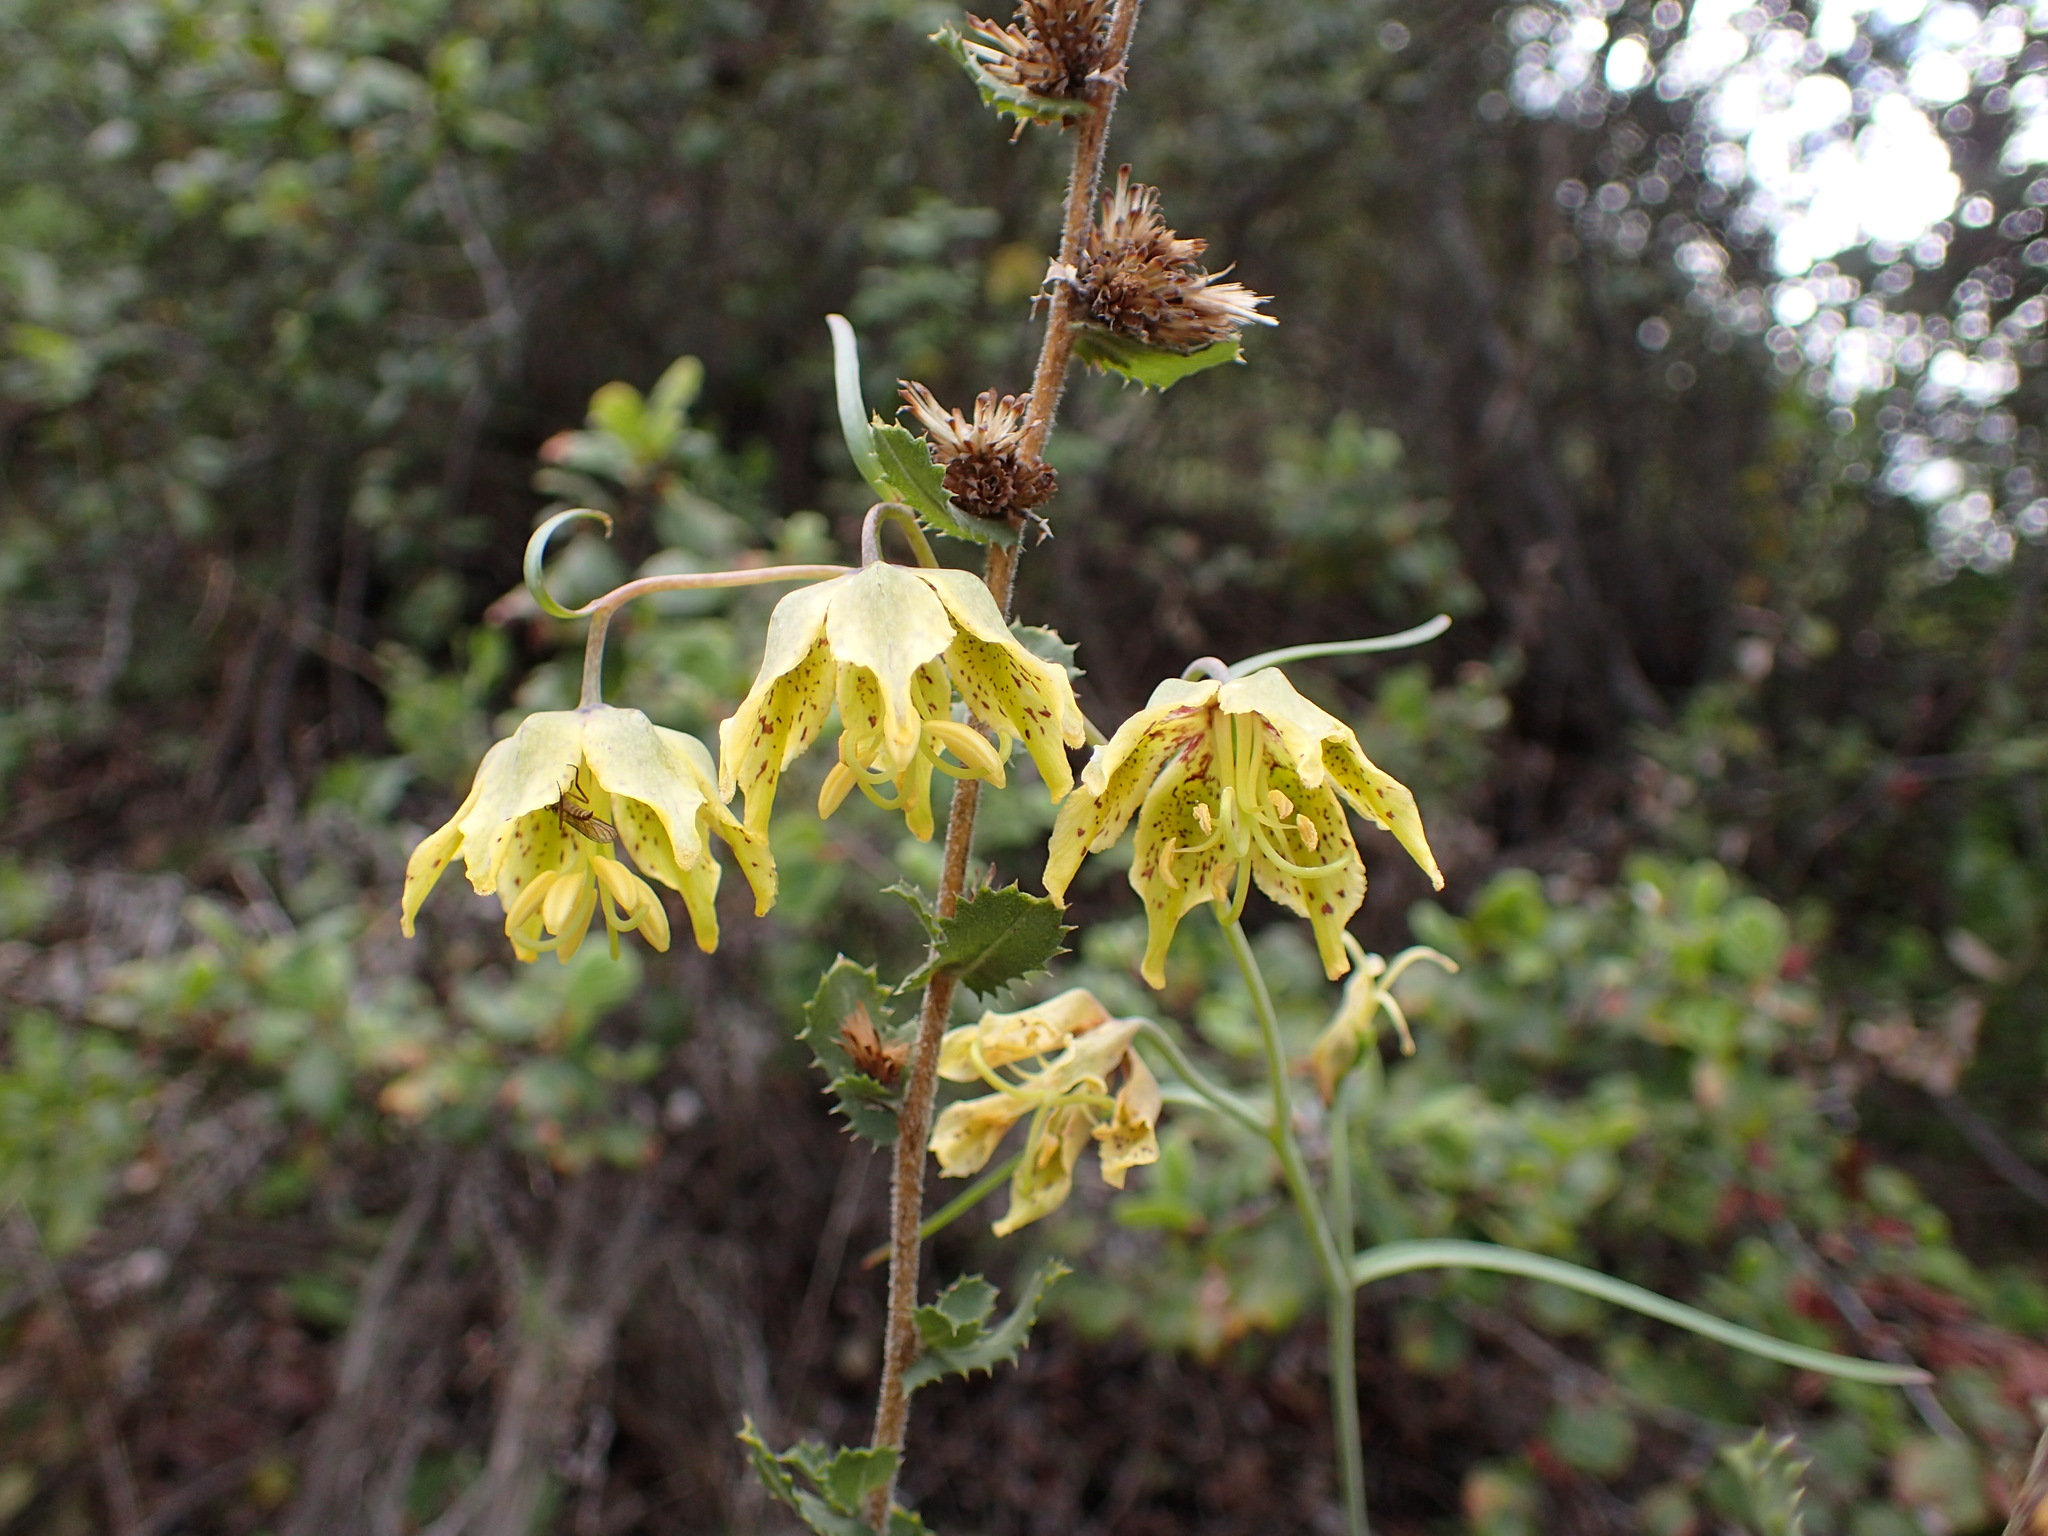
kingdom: Plantae
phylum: Tracheophyta
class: Liliopsida
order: Liliales
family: Liliaceae
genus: Fritillaria
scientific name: Fritillaria ojaiensis
